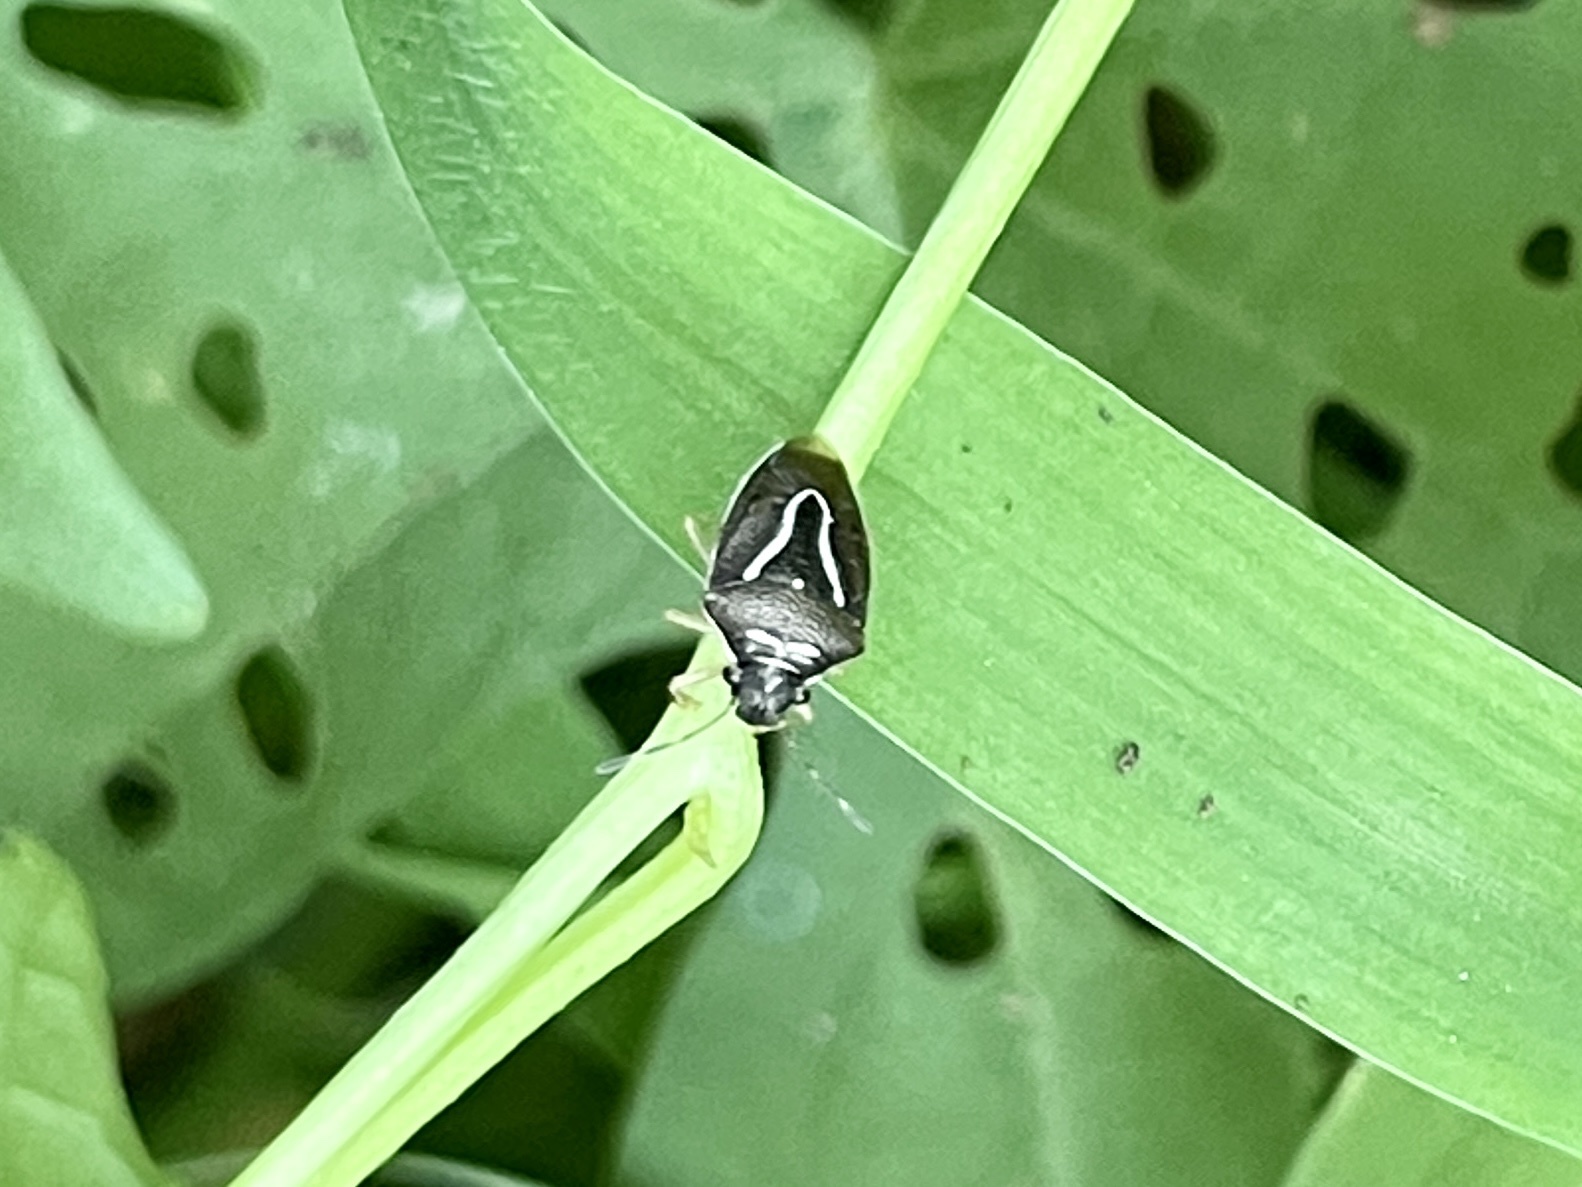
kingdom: Animalia
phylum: Arthropoda
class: Insecta
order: Hemiptera
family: Pentatomidae
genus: Mormidea
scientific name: Mormidea lugens
